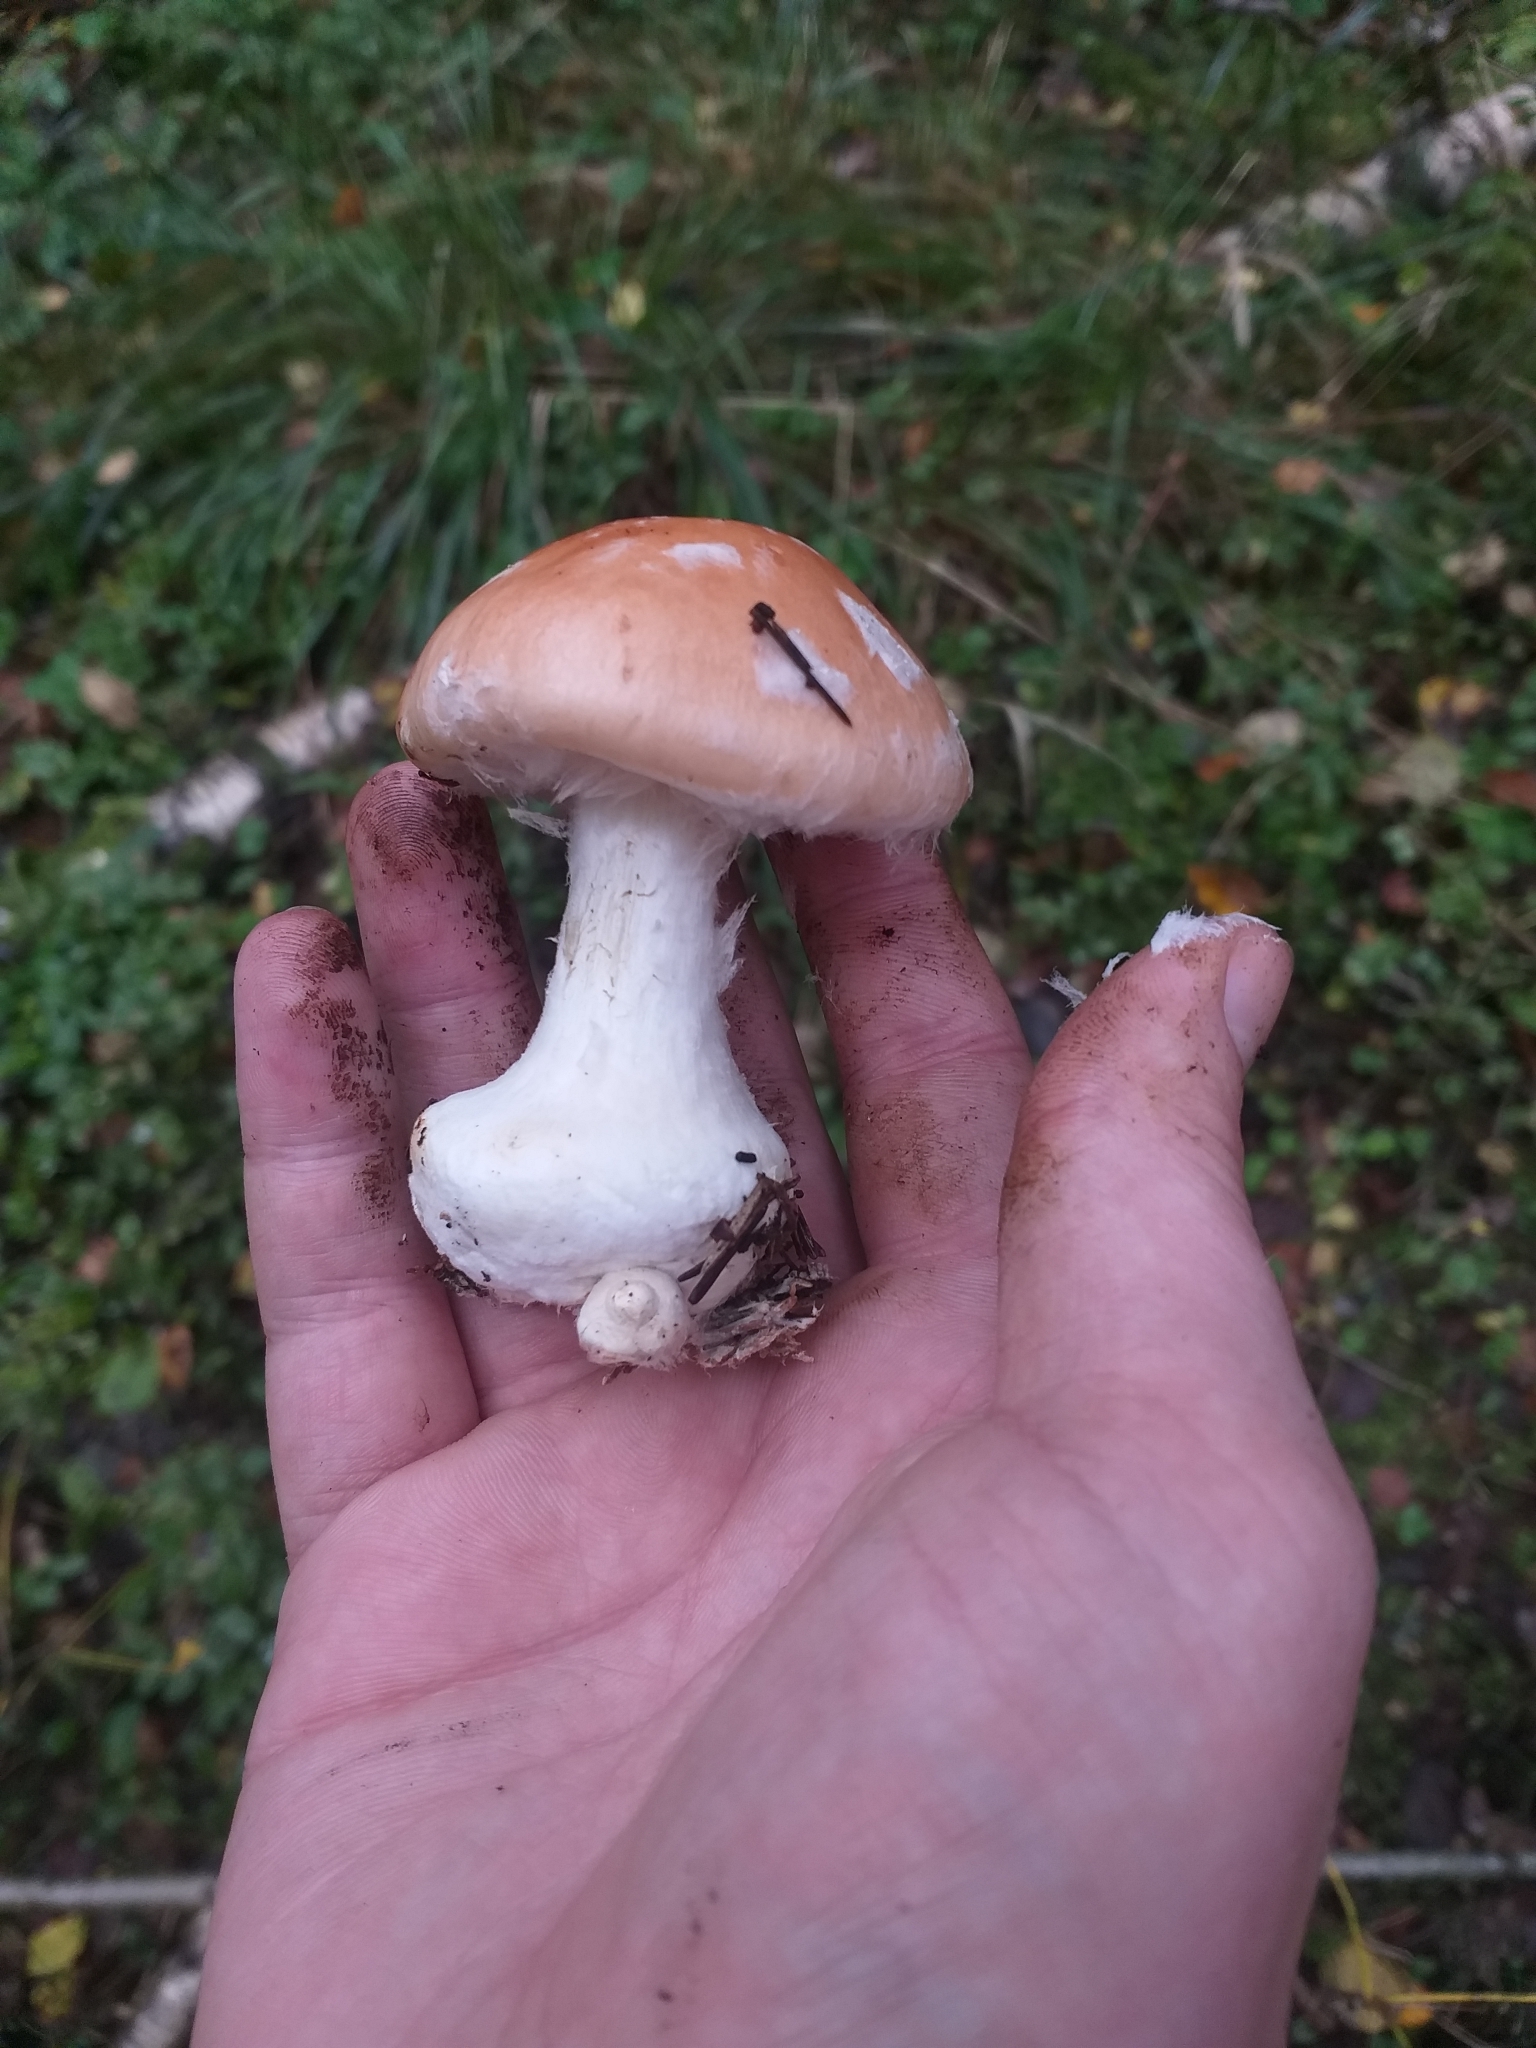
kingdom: Fungi
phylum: Basidiomycota
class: Agaricomycetes
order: Agaricales
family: Tricholomataceae
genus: Leucocortinarius
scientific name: Leucocortinarius bulbiger
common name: White webcap
